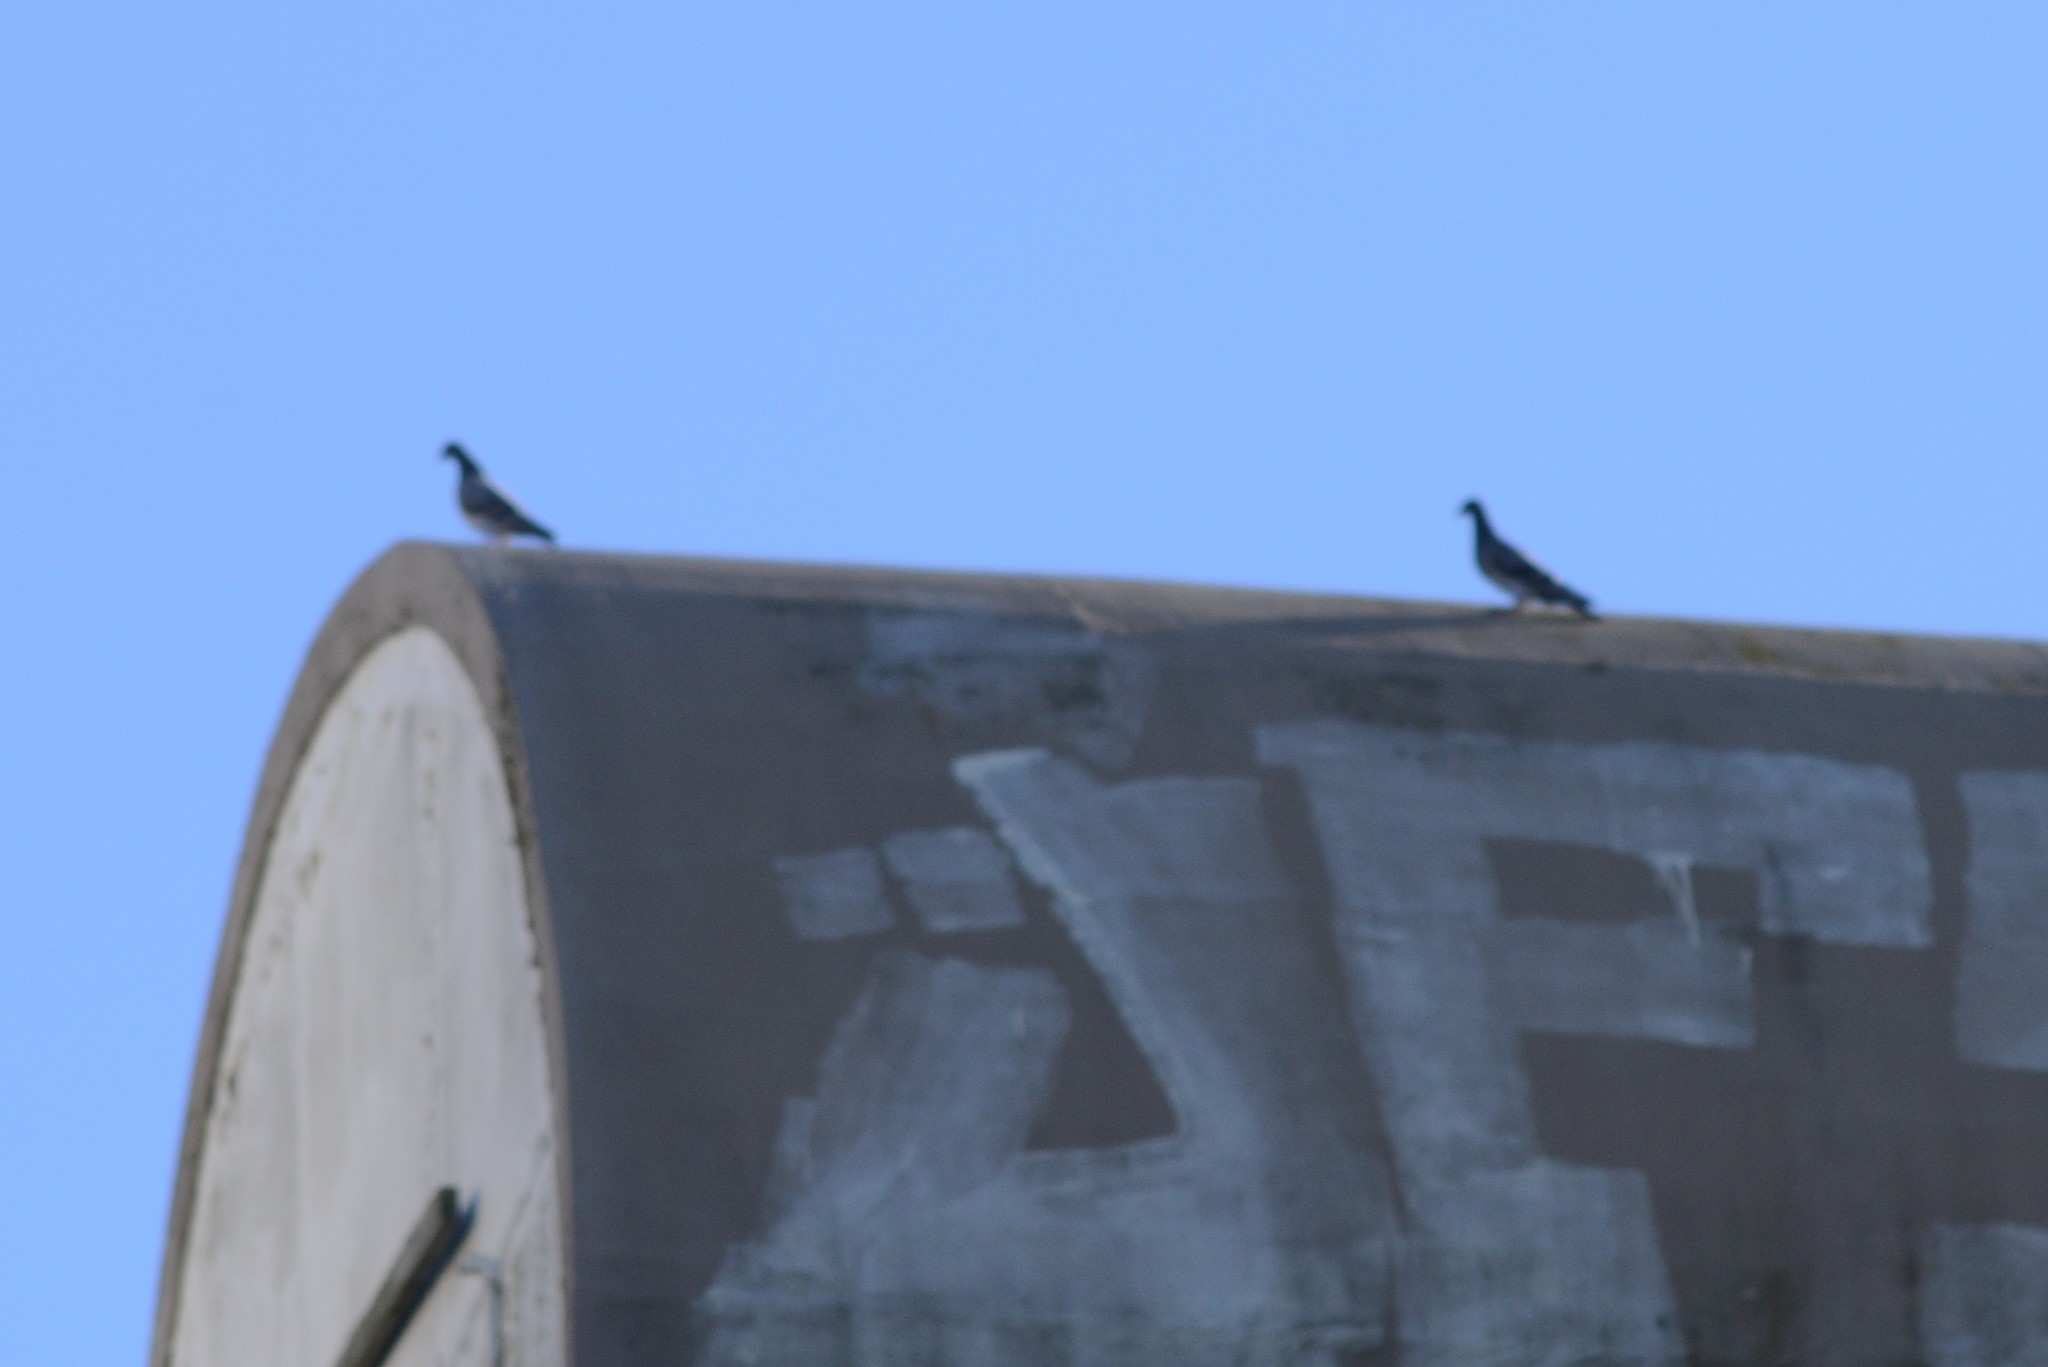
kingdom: Animalia
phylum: Chordata
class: Aves
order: Columbiformes
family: Columbidae
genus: Columba
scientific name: Columba livia
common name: Rock pigeon
